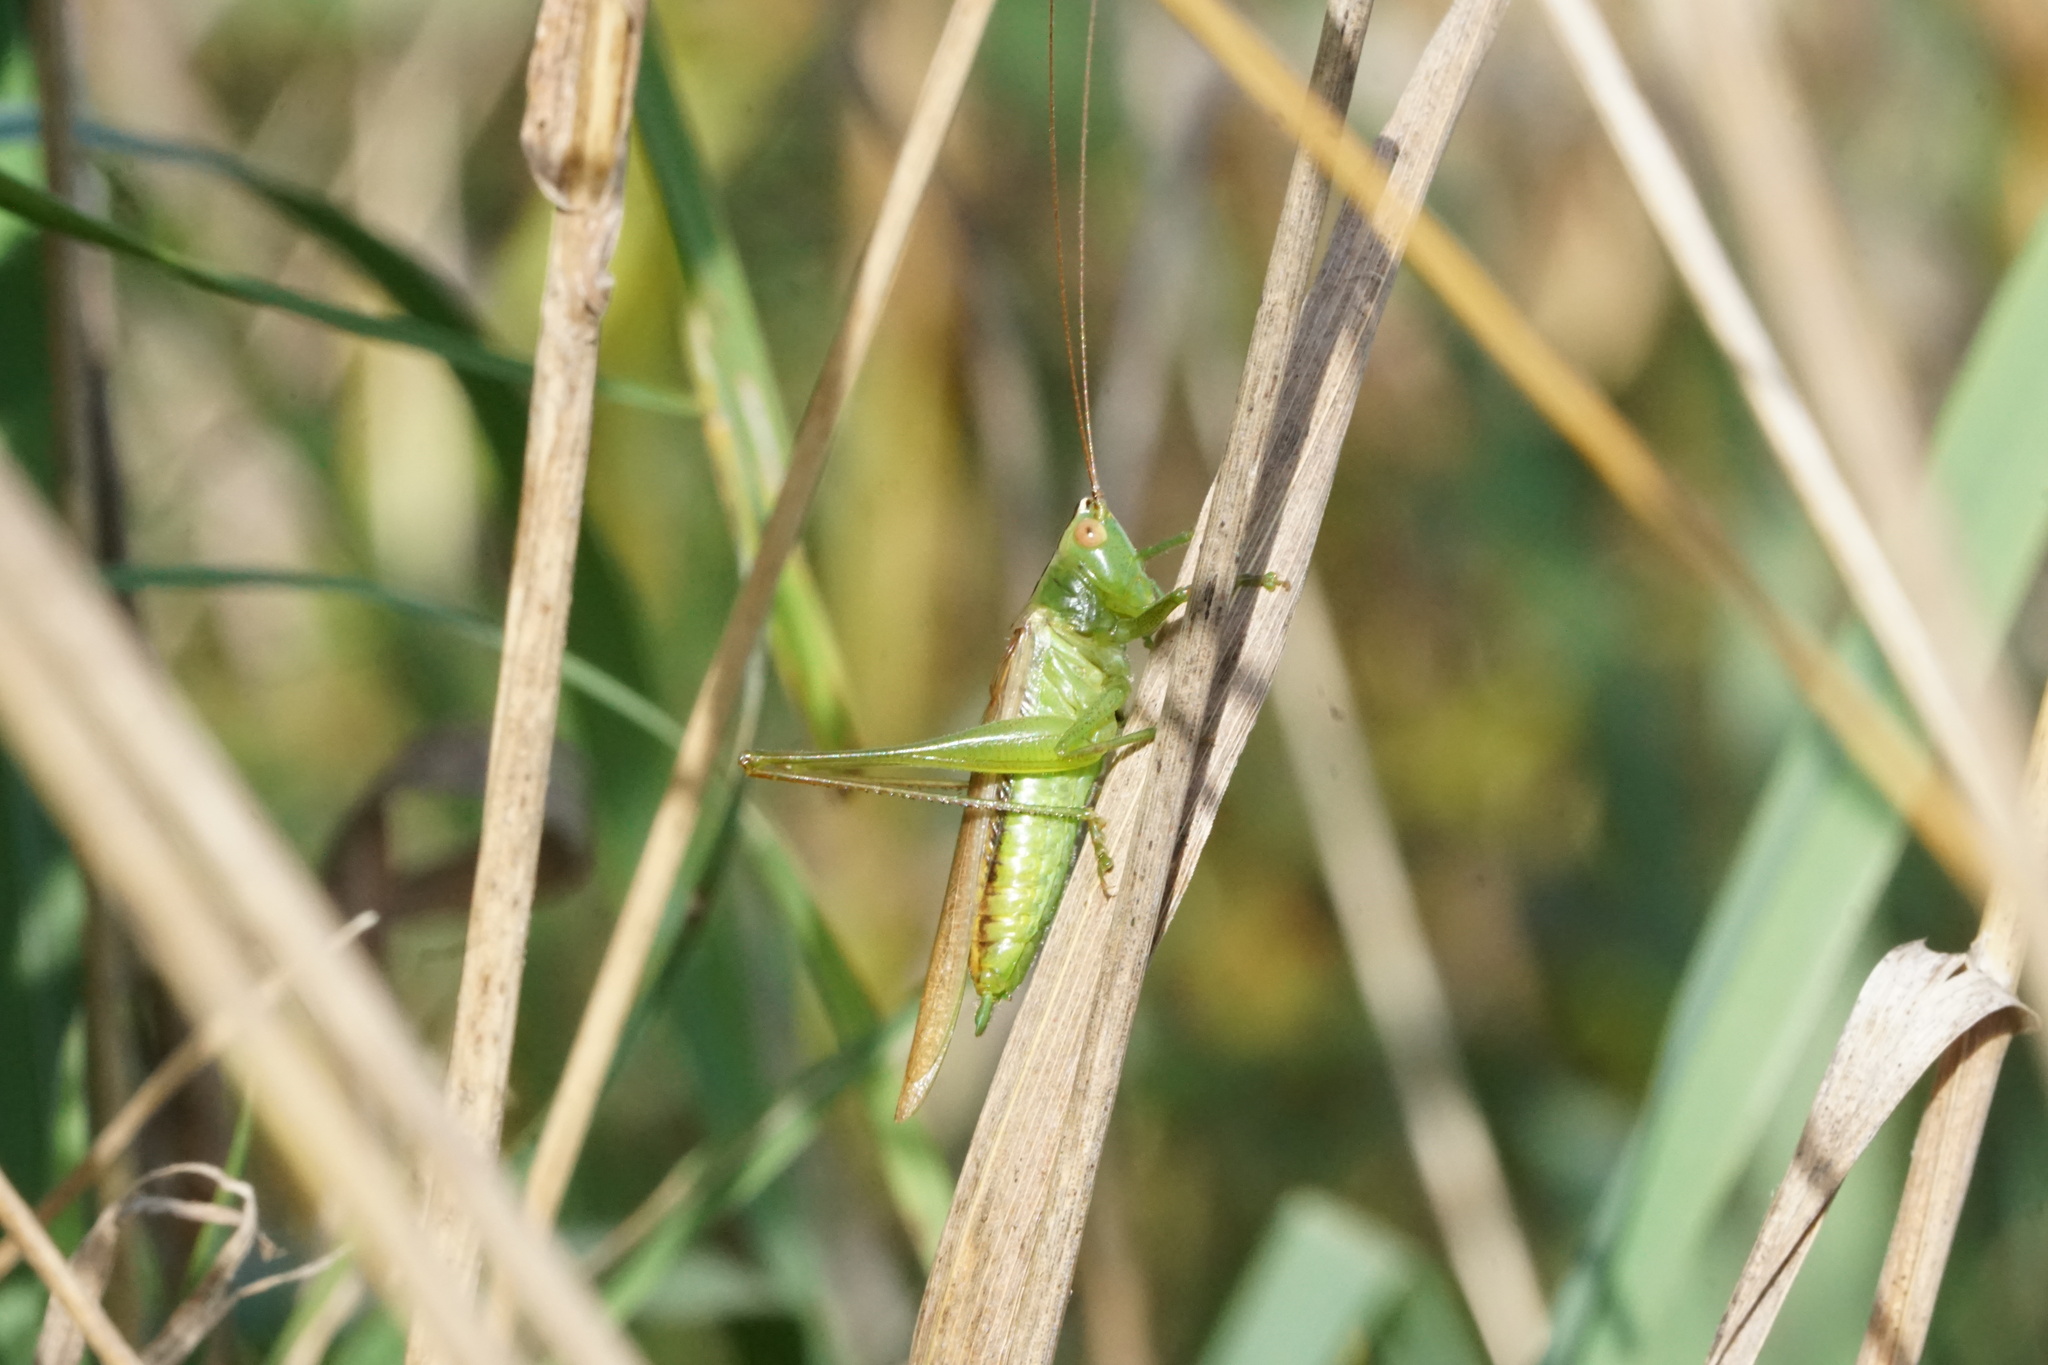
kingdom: Animalia
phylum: Arthropoda
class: Insecta
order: Orthoptera
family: Tettigoniidae
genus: Conocephalus
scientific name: Conocephalus fasciatus
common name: Slender meadow katydid
